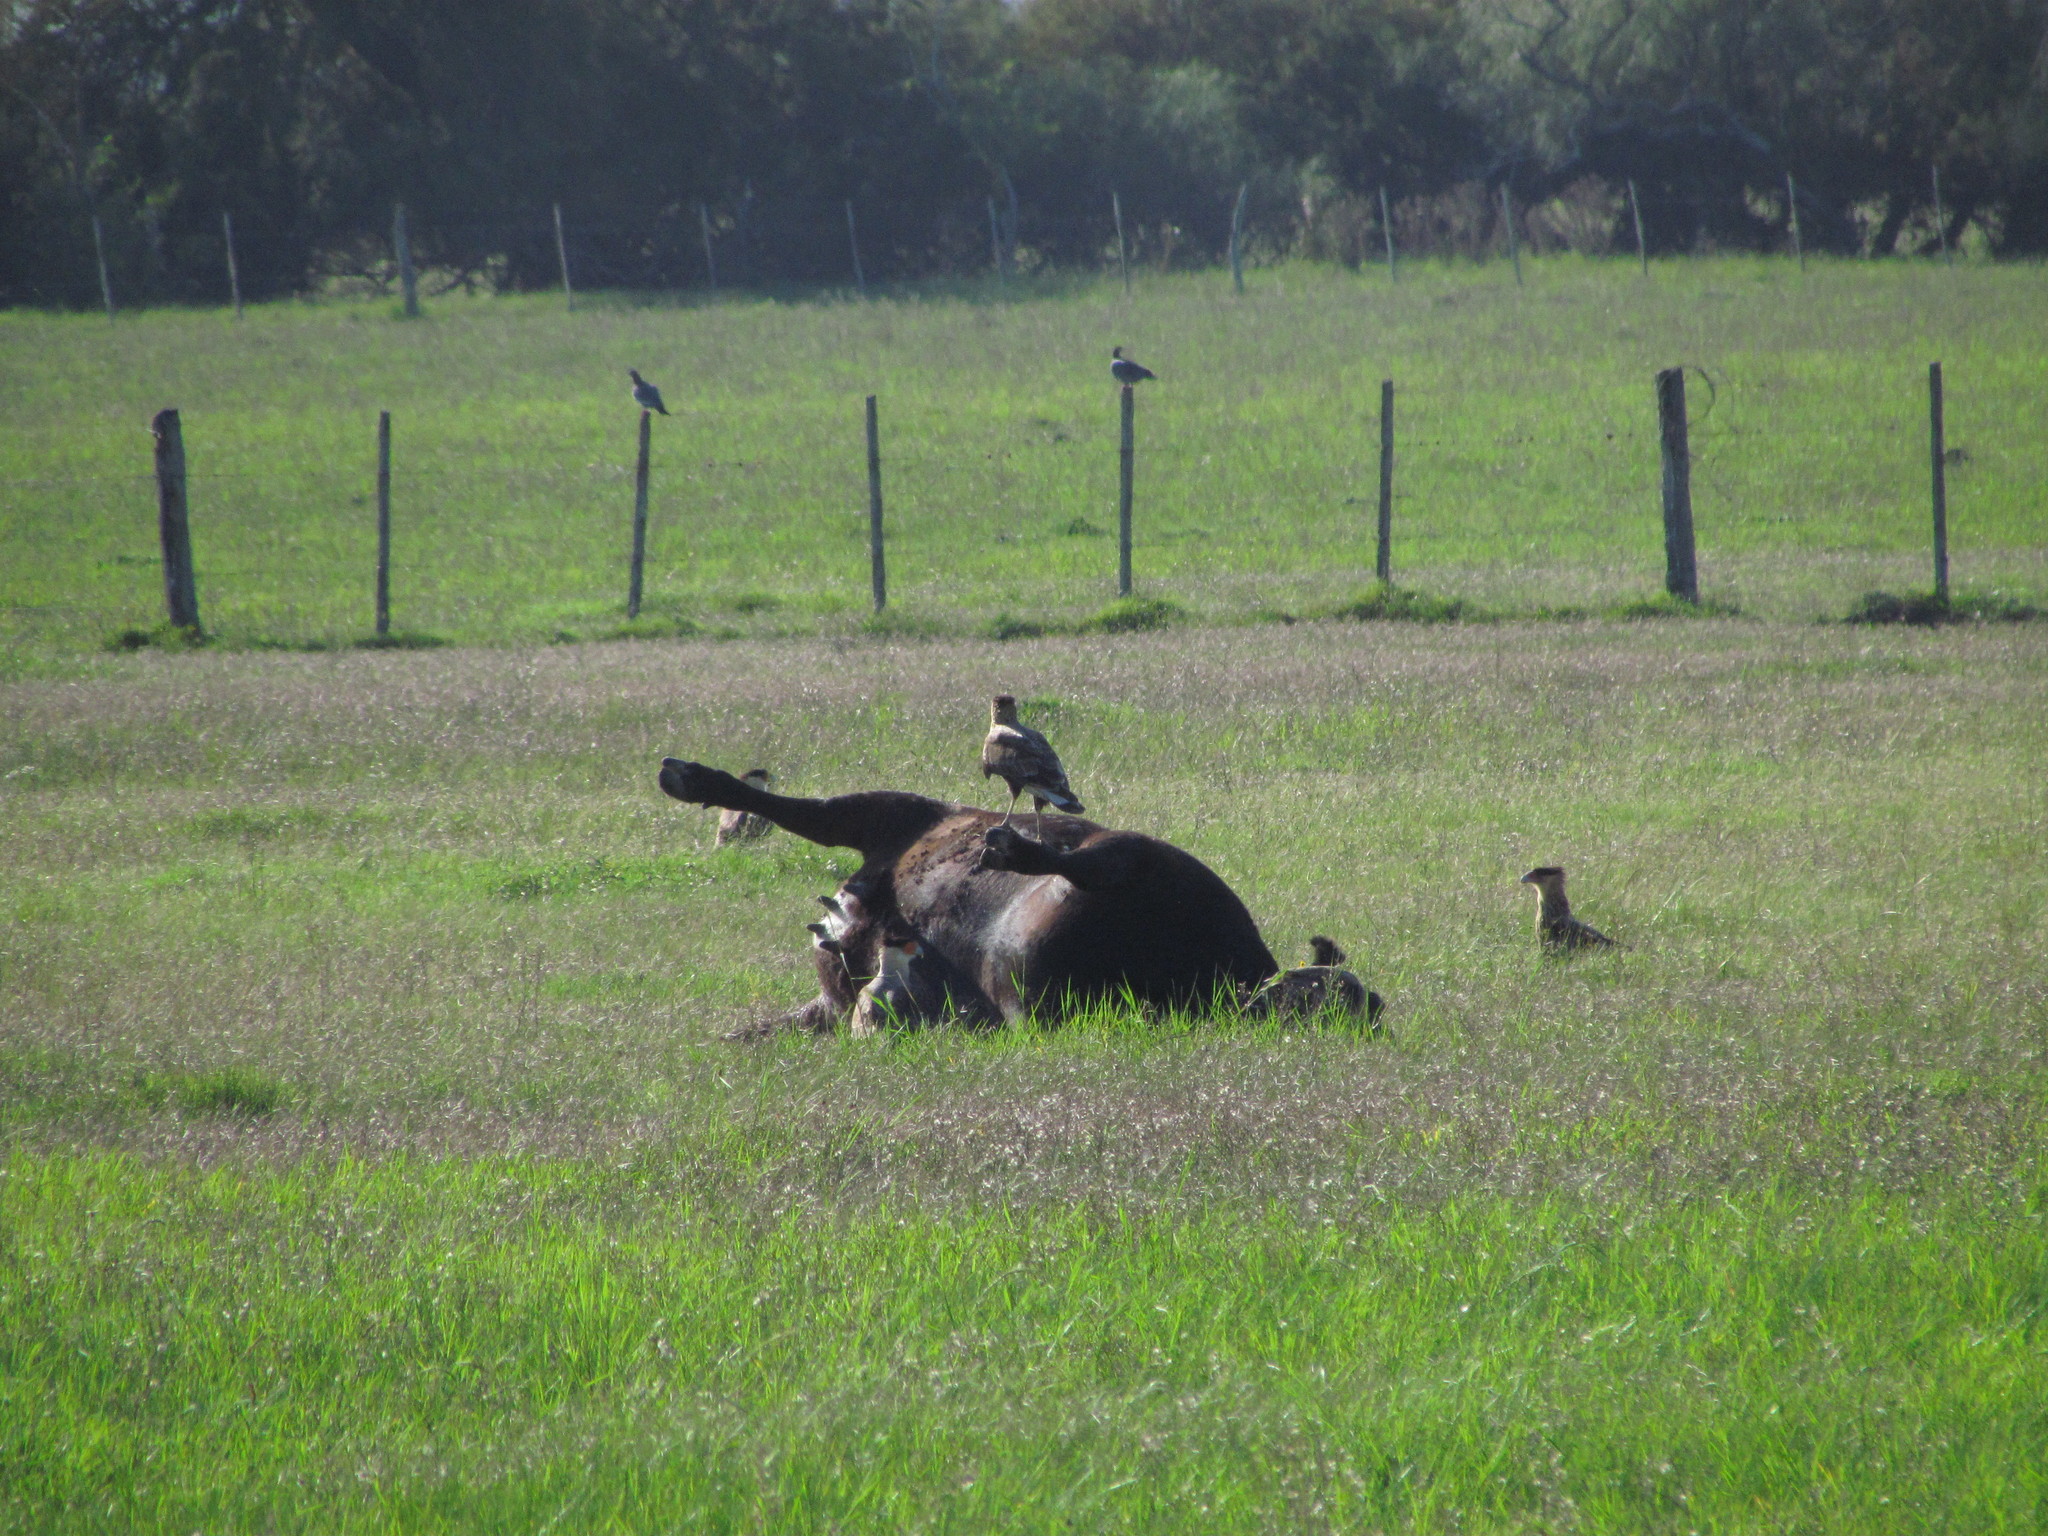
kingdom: Animalia
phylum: Chordata
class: Aves
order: Falconiformes
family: Falconidae
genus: Caracara
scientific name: Caracara plancus
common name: Southern caracara
